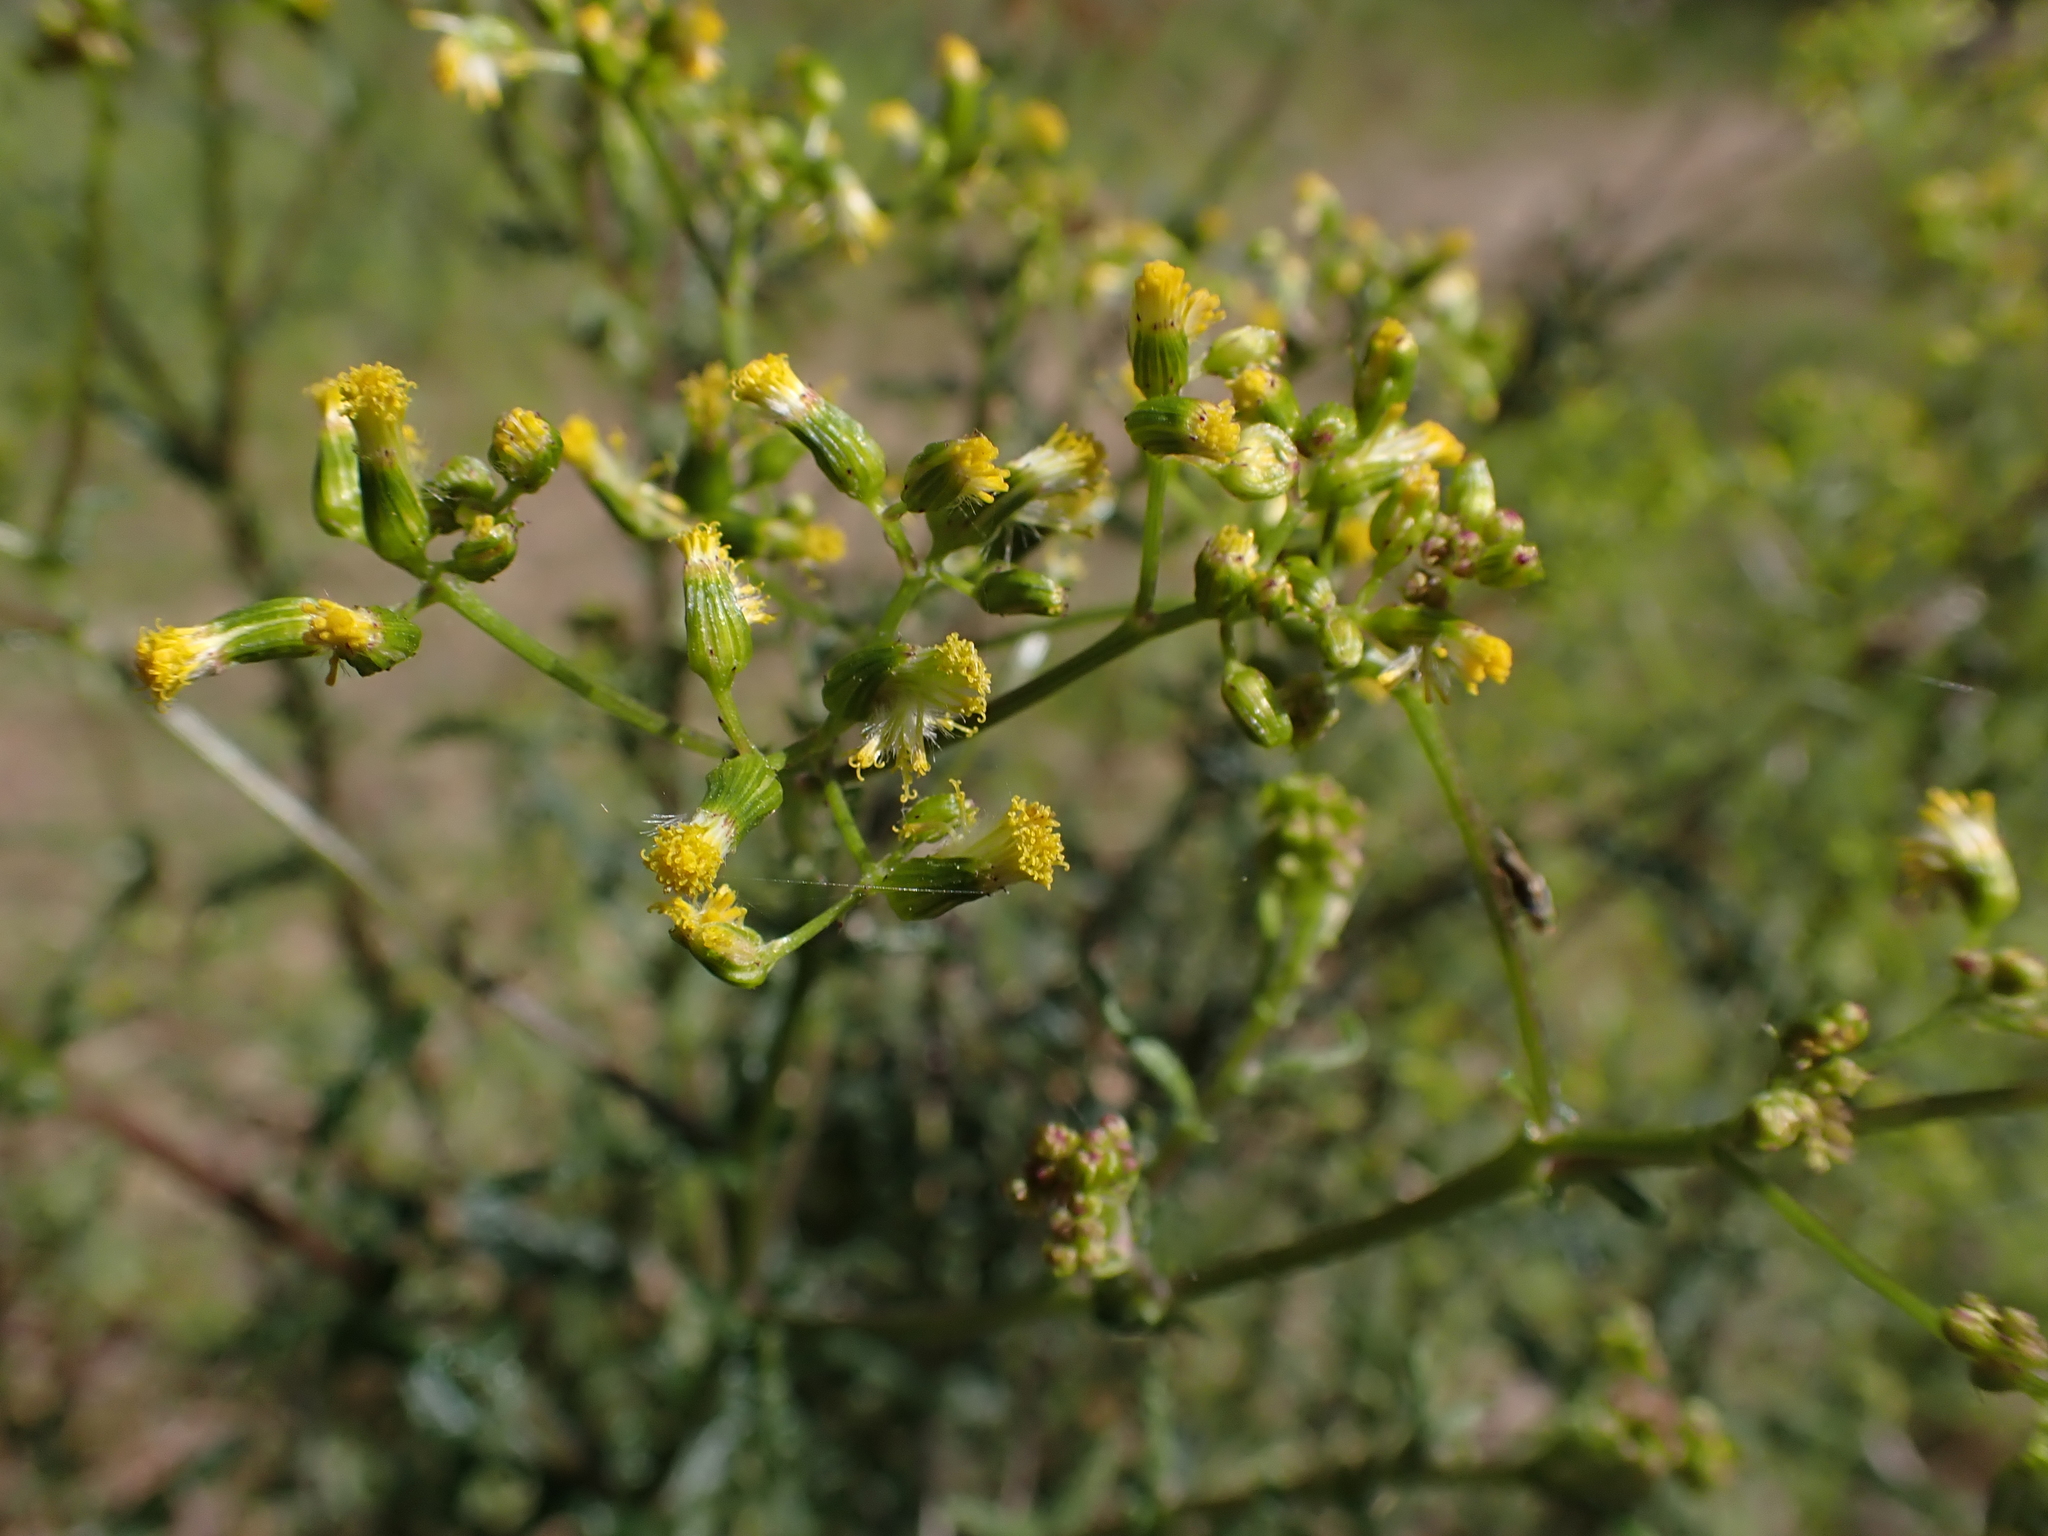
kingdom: Plantae
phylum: Tracheophyta
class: Magnoliopsida
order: Asterales
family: Asteraceae
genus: Senecio
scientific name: Senecio hispidulus
